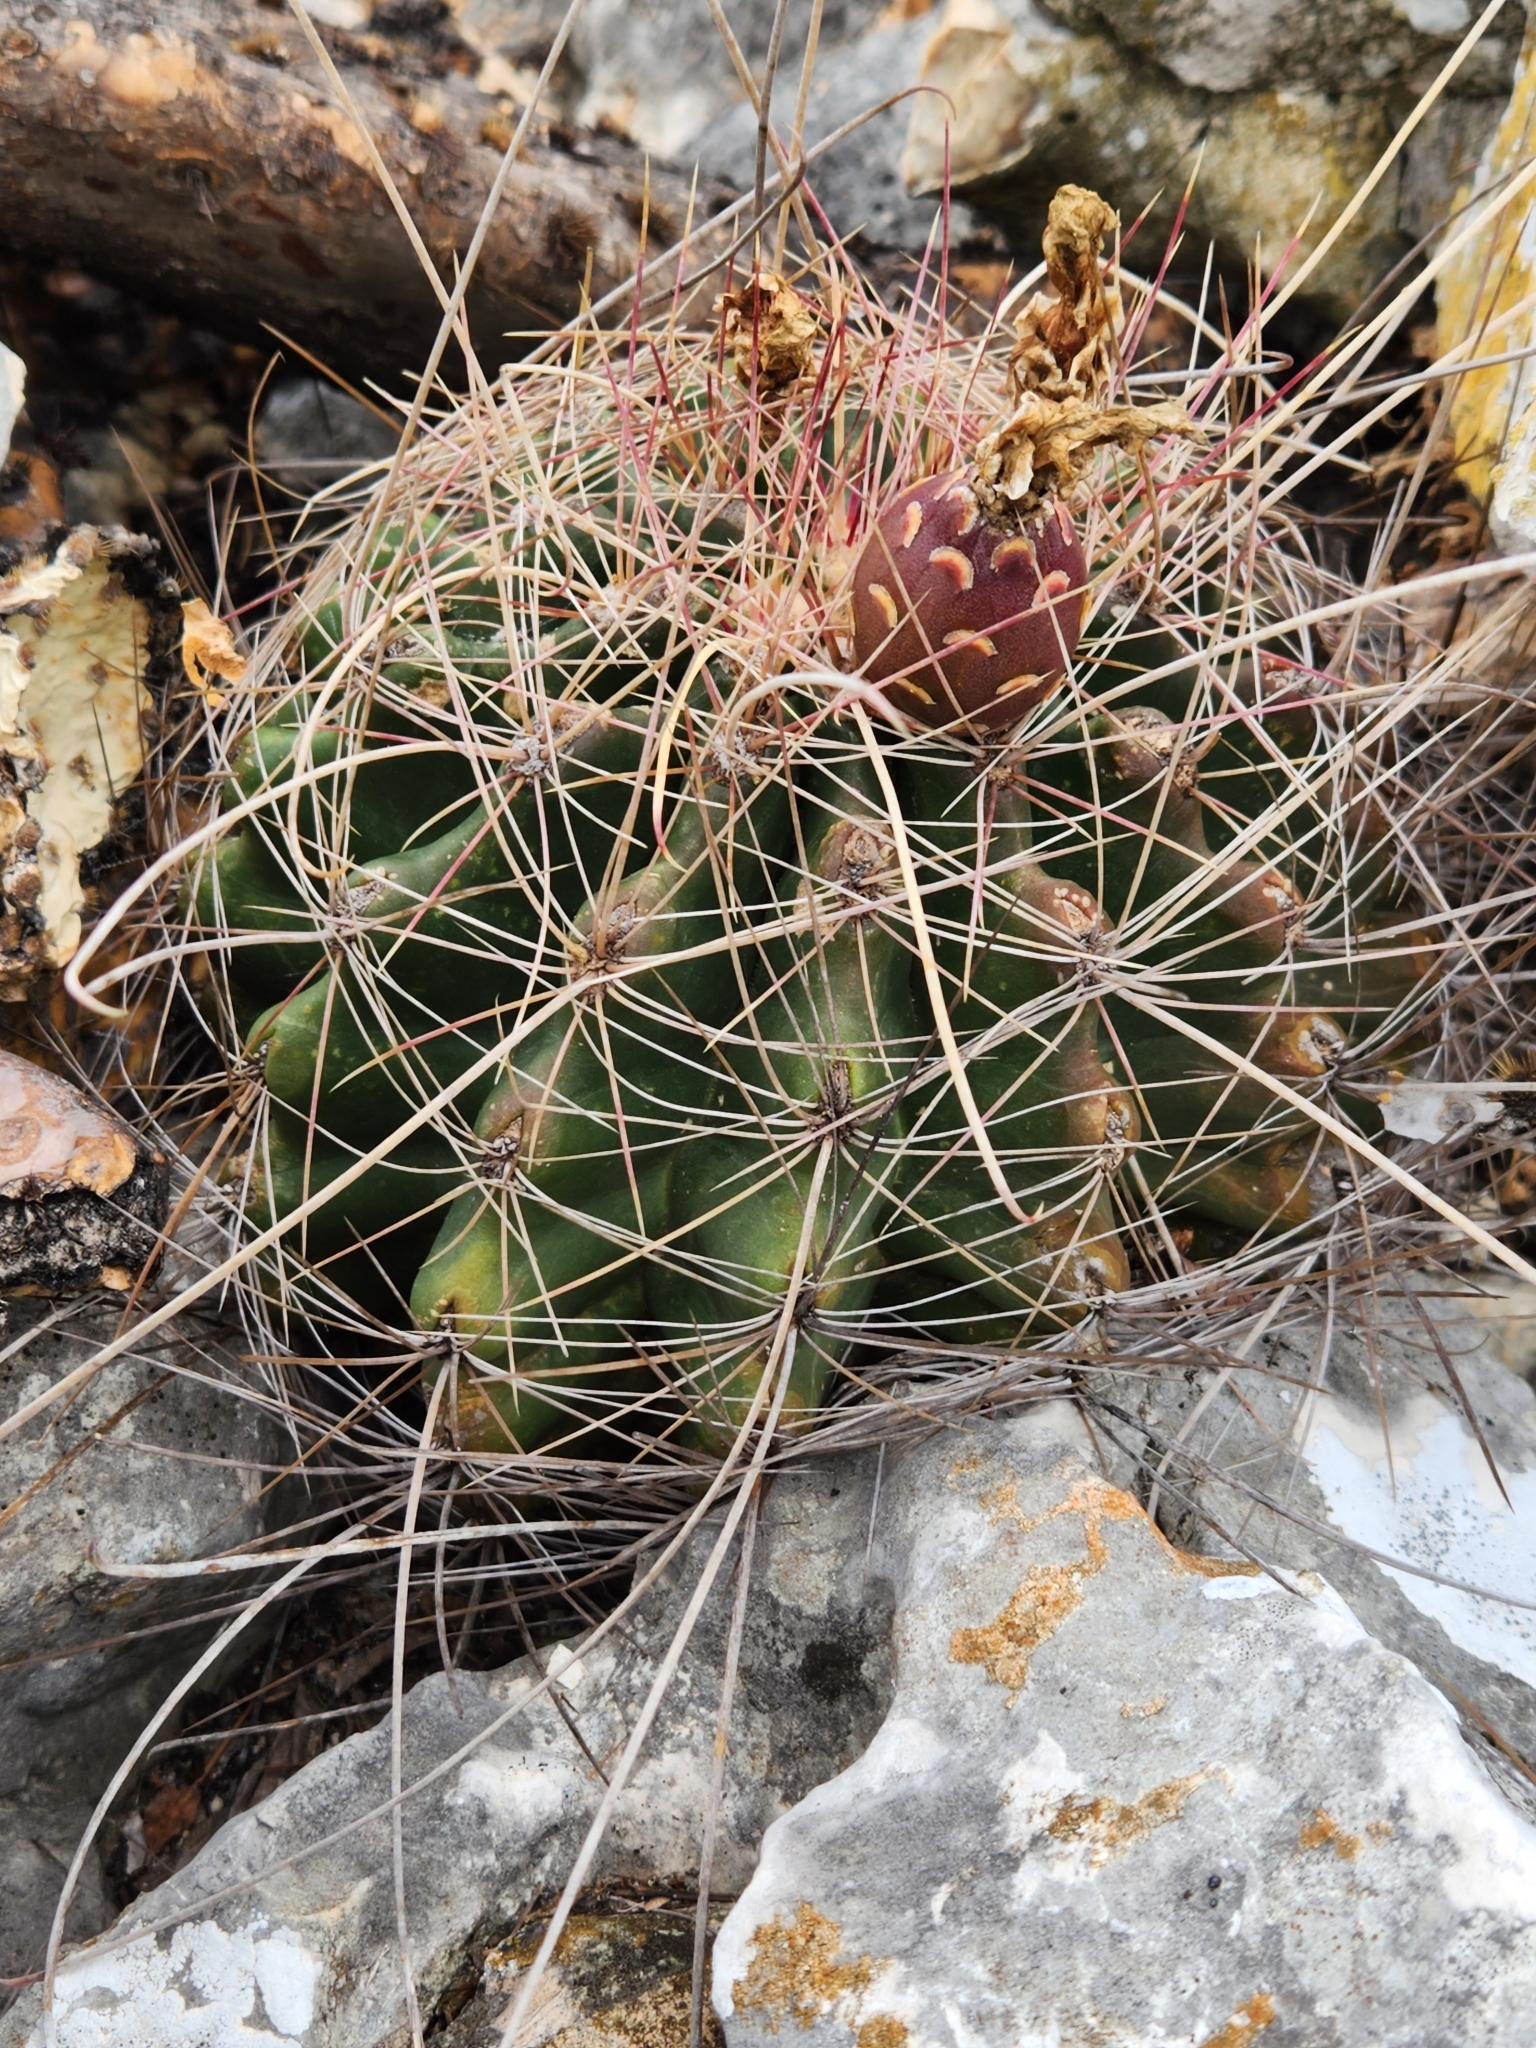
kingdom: Plantae
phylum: Tracheophyta
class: Magnoliopsida
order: Caryophyllales
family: Cactaceae
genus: Bisnaga
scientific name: Bisnaga hamatacantha
